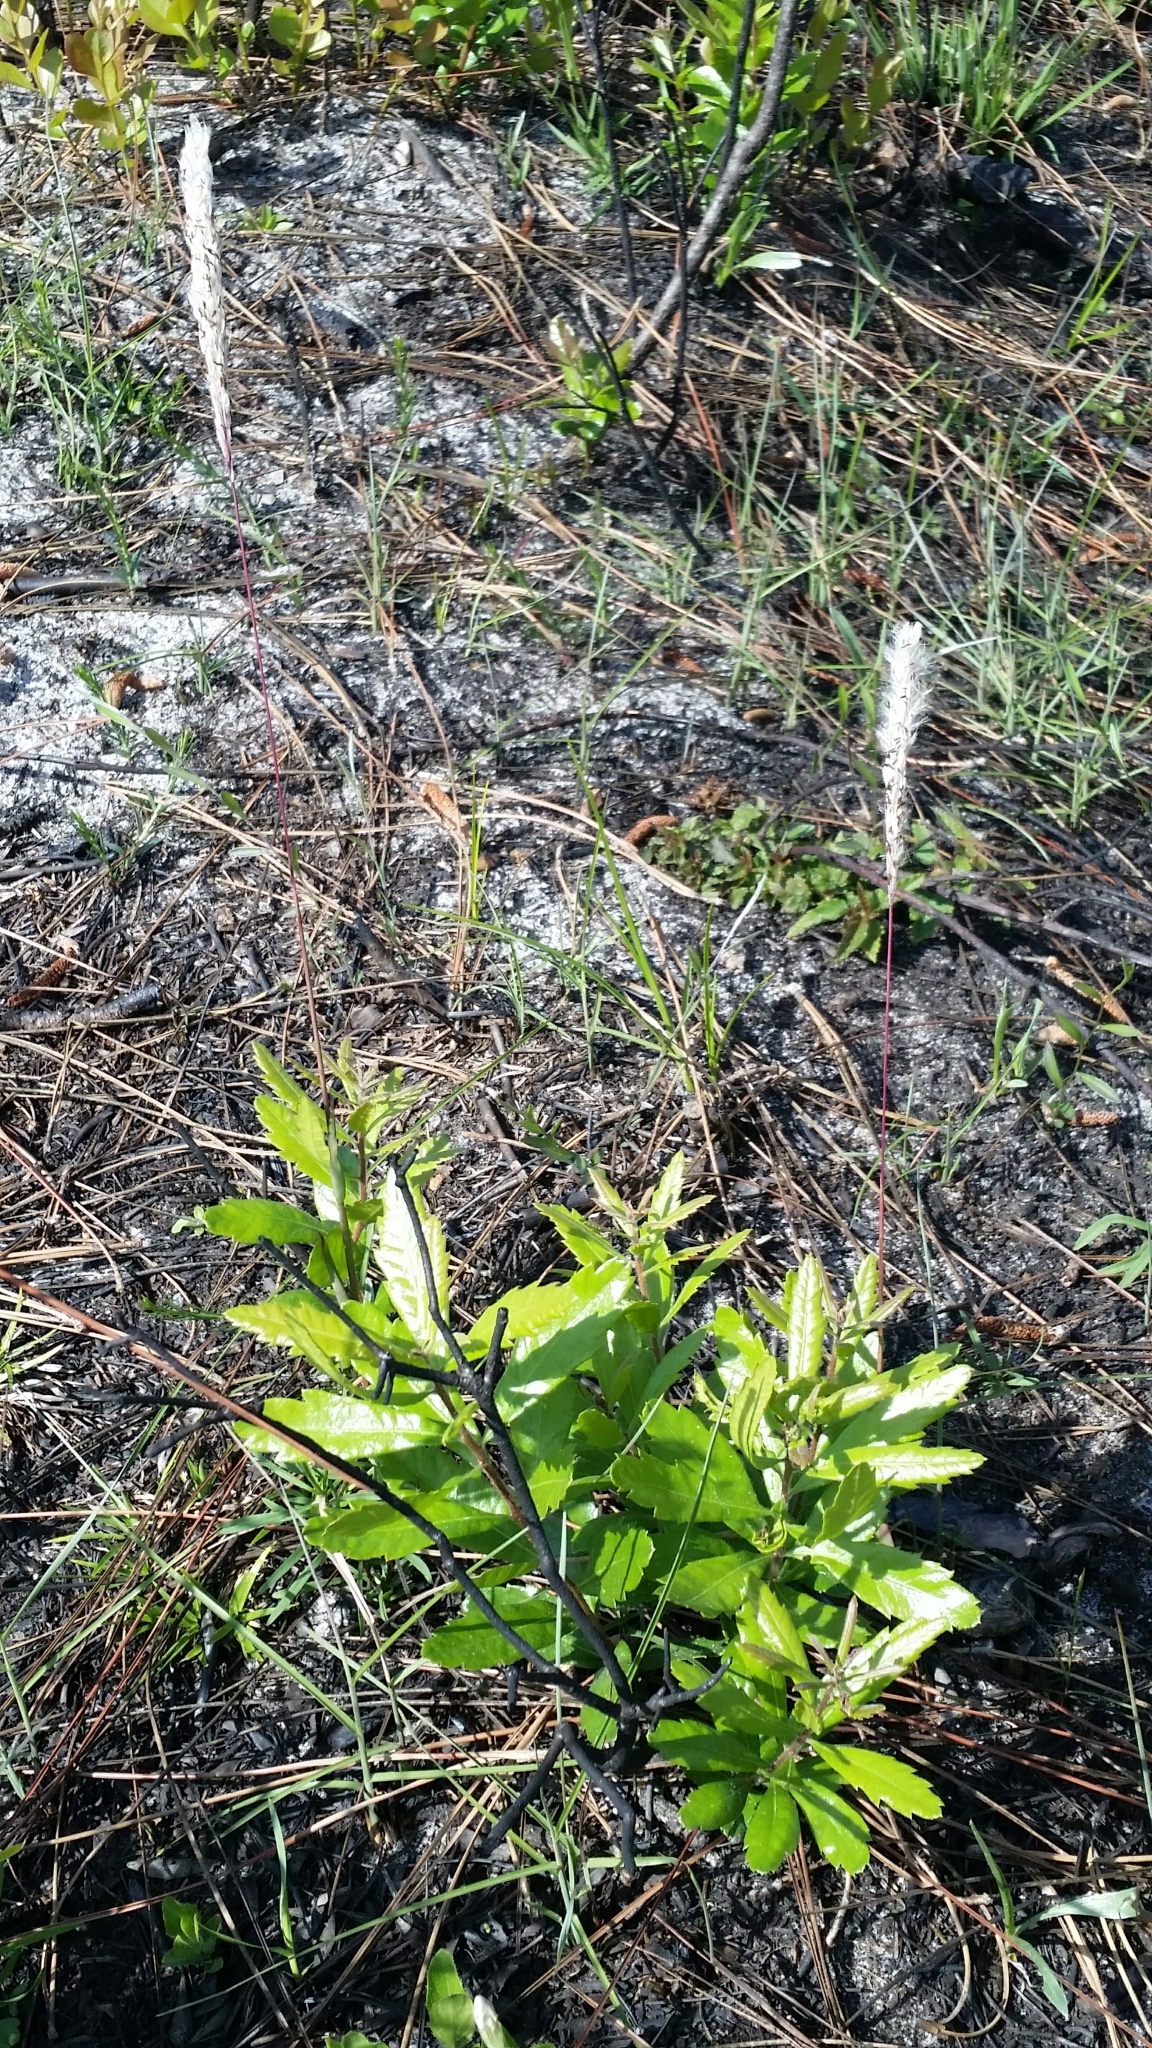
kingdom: Plantae
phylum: Tracheophyta
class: Liliopsida
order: Poales
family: Poaceae
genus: Imperata
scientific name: Imperata cylindrica
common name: Cogongrass
